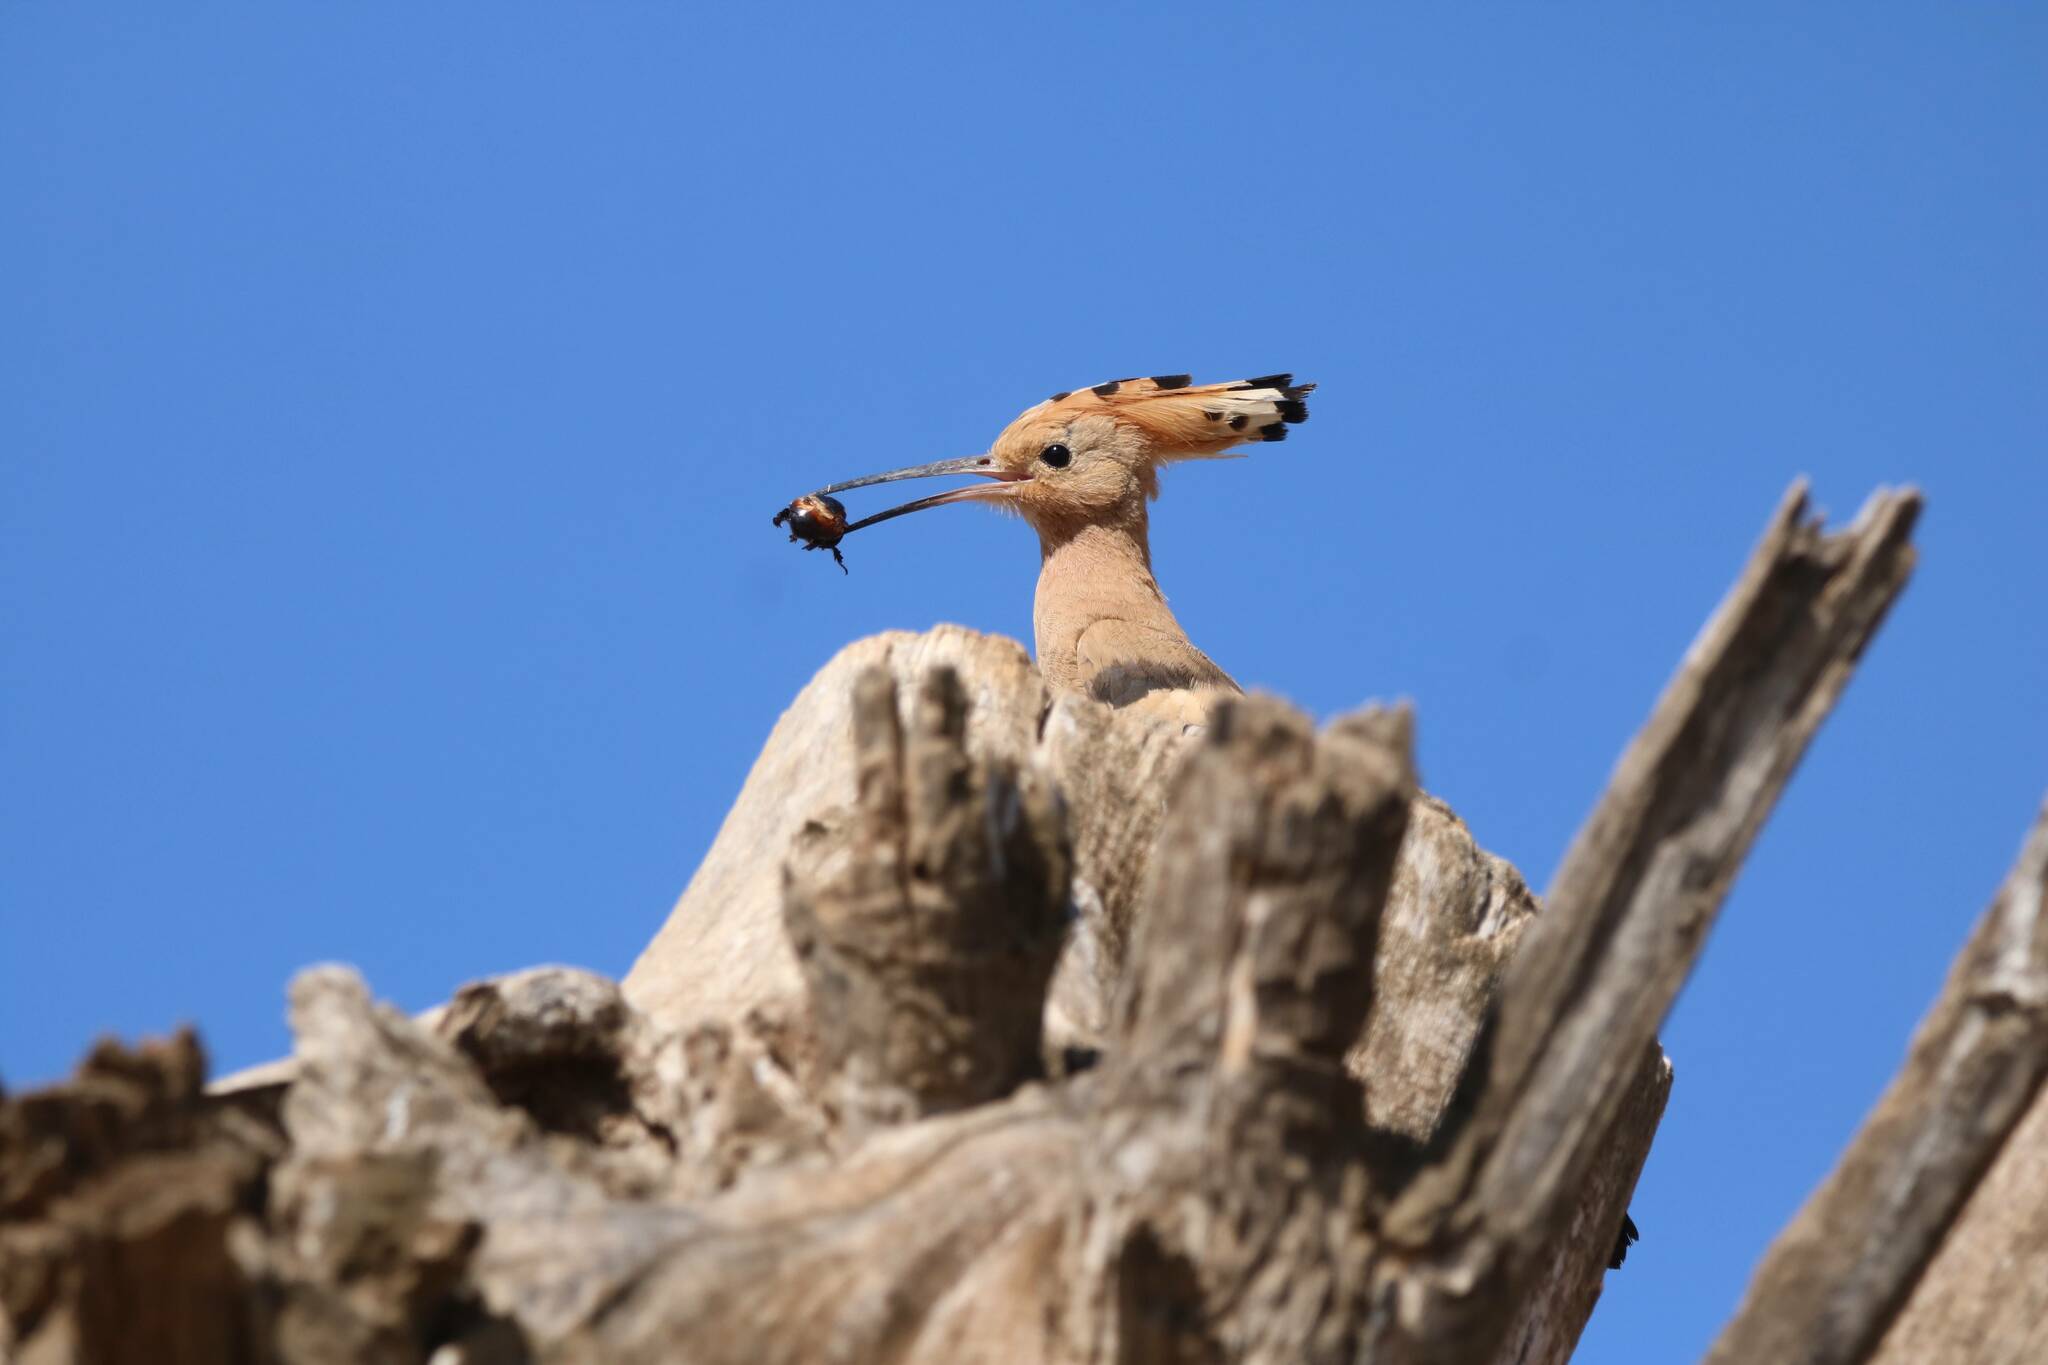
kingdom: Animalia
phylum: Chordata
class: Aves
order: Bucerotiformes
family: Upupidae
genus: Upupa
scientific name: Upupa epops
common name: Eurasian hoopoe
